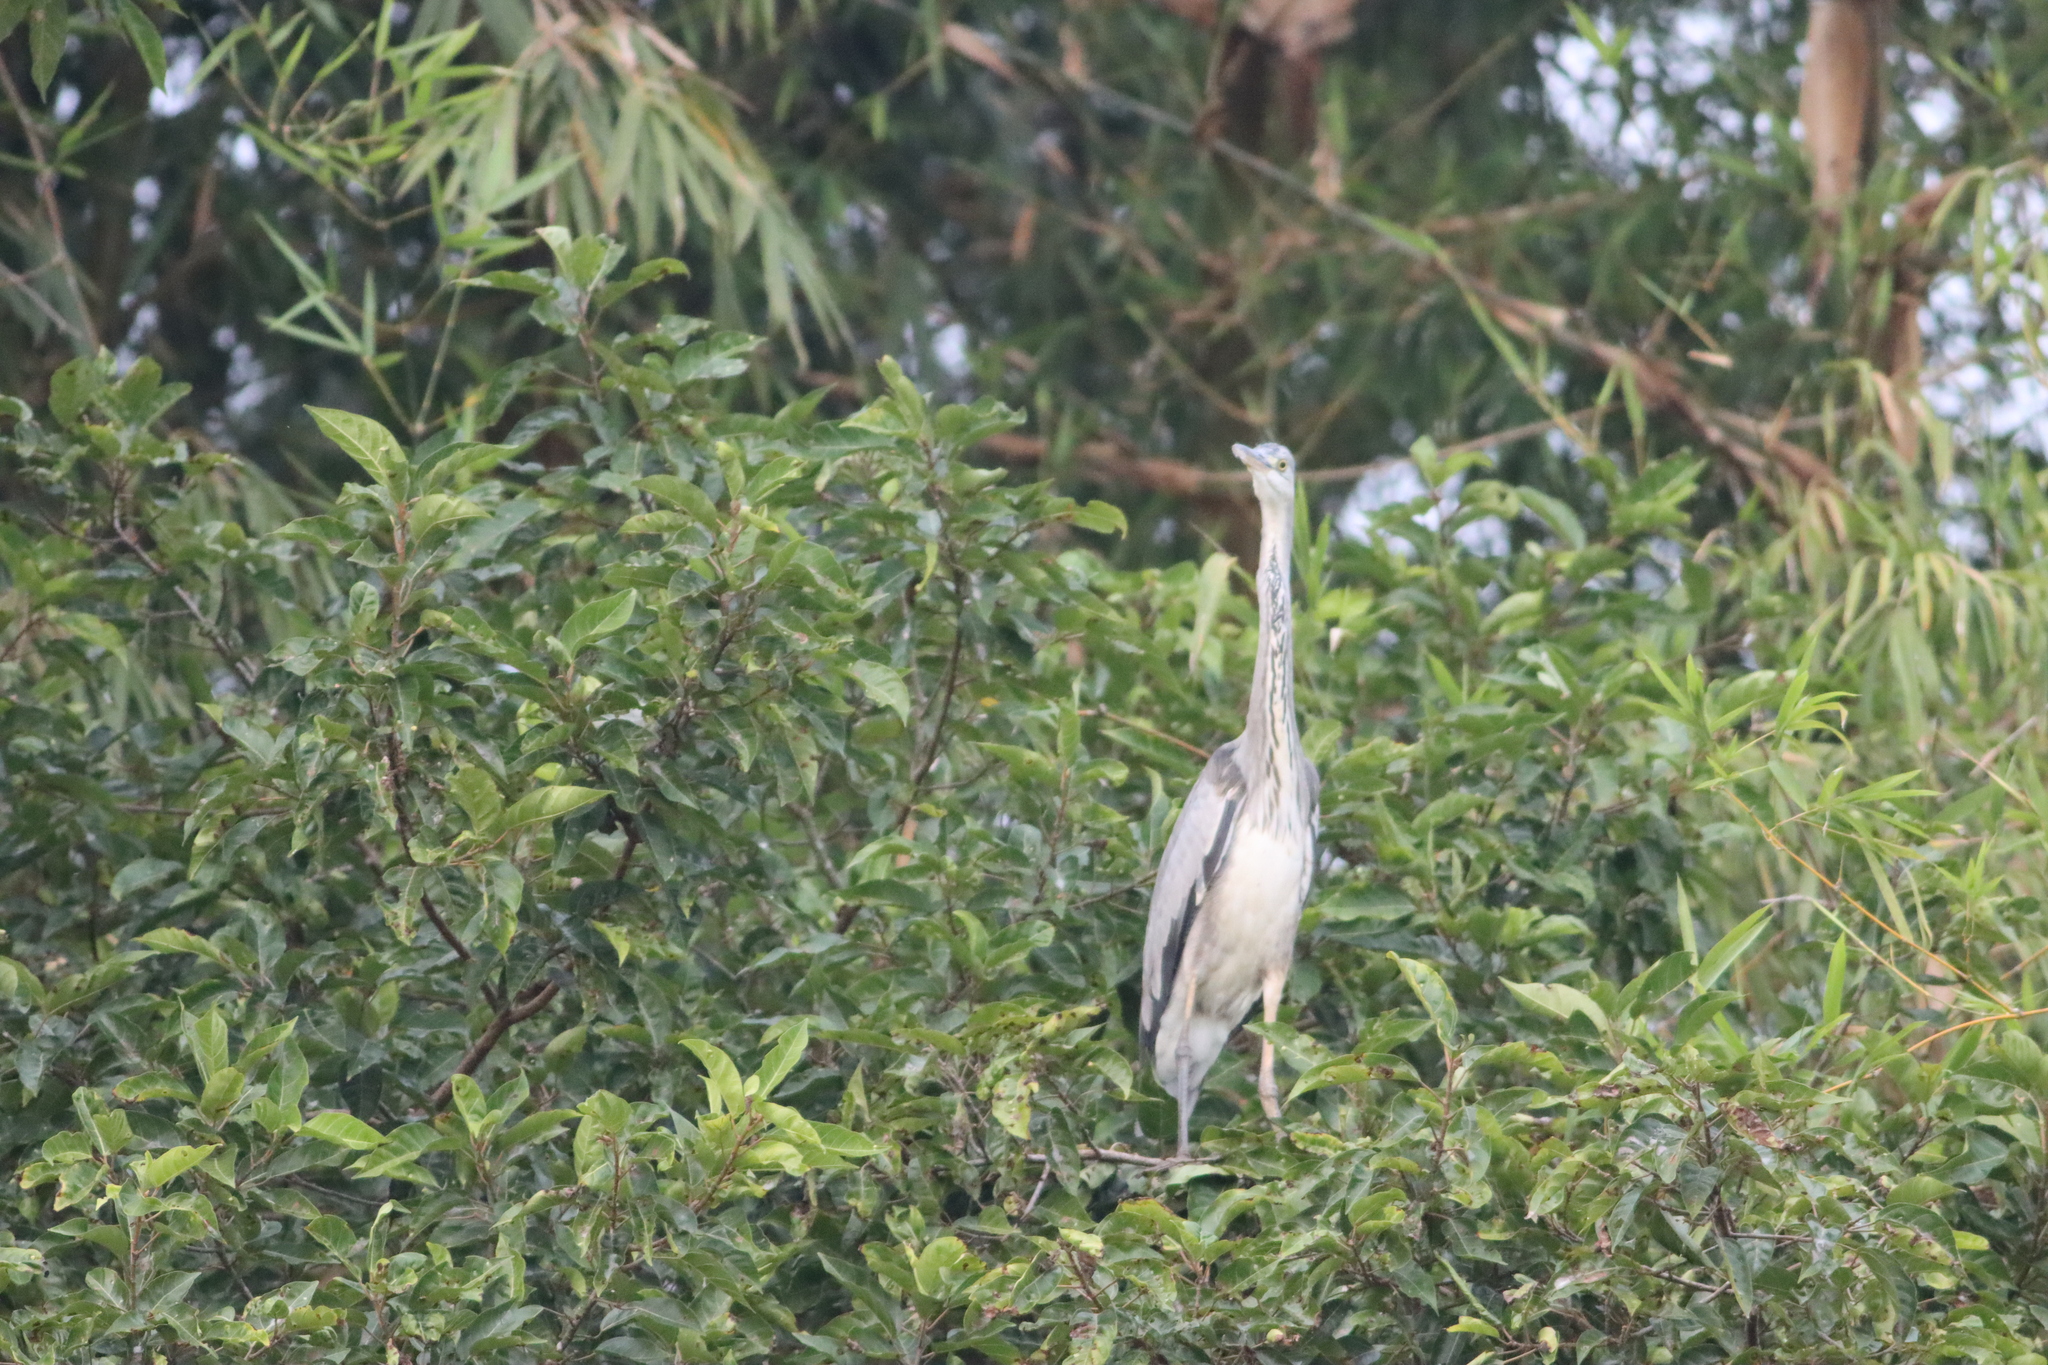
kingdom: Animalia
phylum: Chordata
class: Aves
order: Pelecaniformes
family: Ardeidae
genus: Ardea
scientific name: Ardea cinerea
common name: Grey heron
